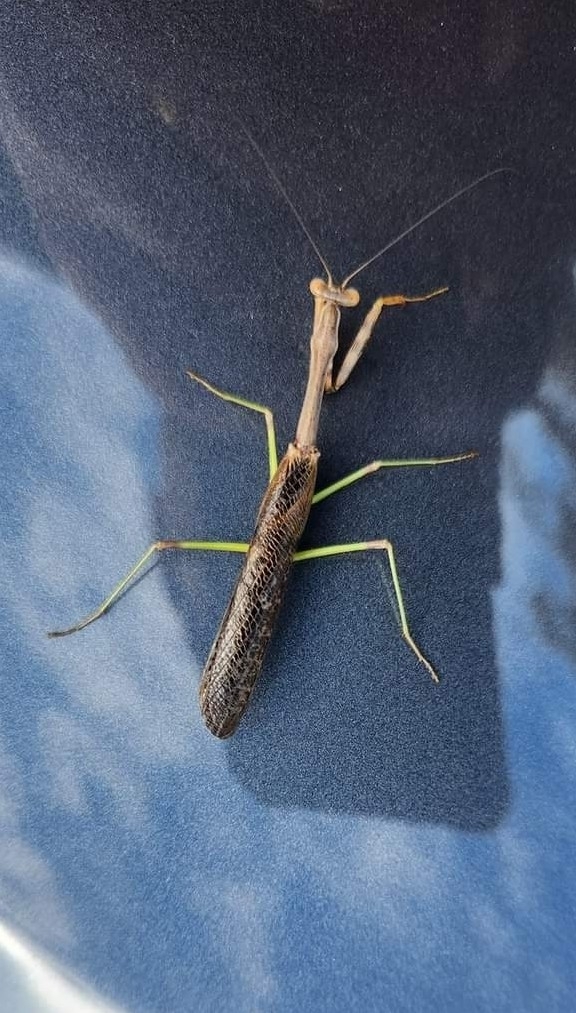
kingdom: Animalia
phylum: Arthropoda
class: Insecta
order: Mantodea
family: Mantidae
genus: Stagmomantis
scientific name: Stagmomantis carolina
